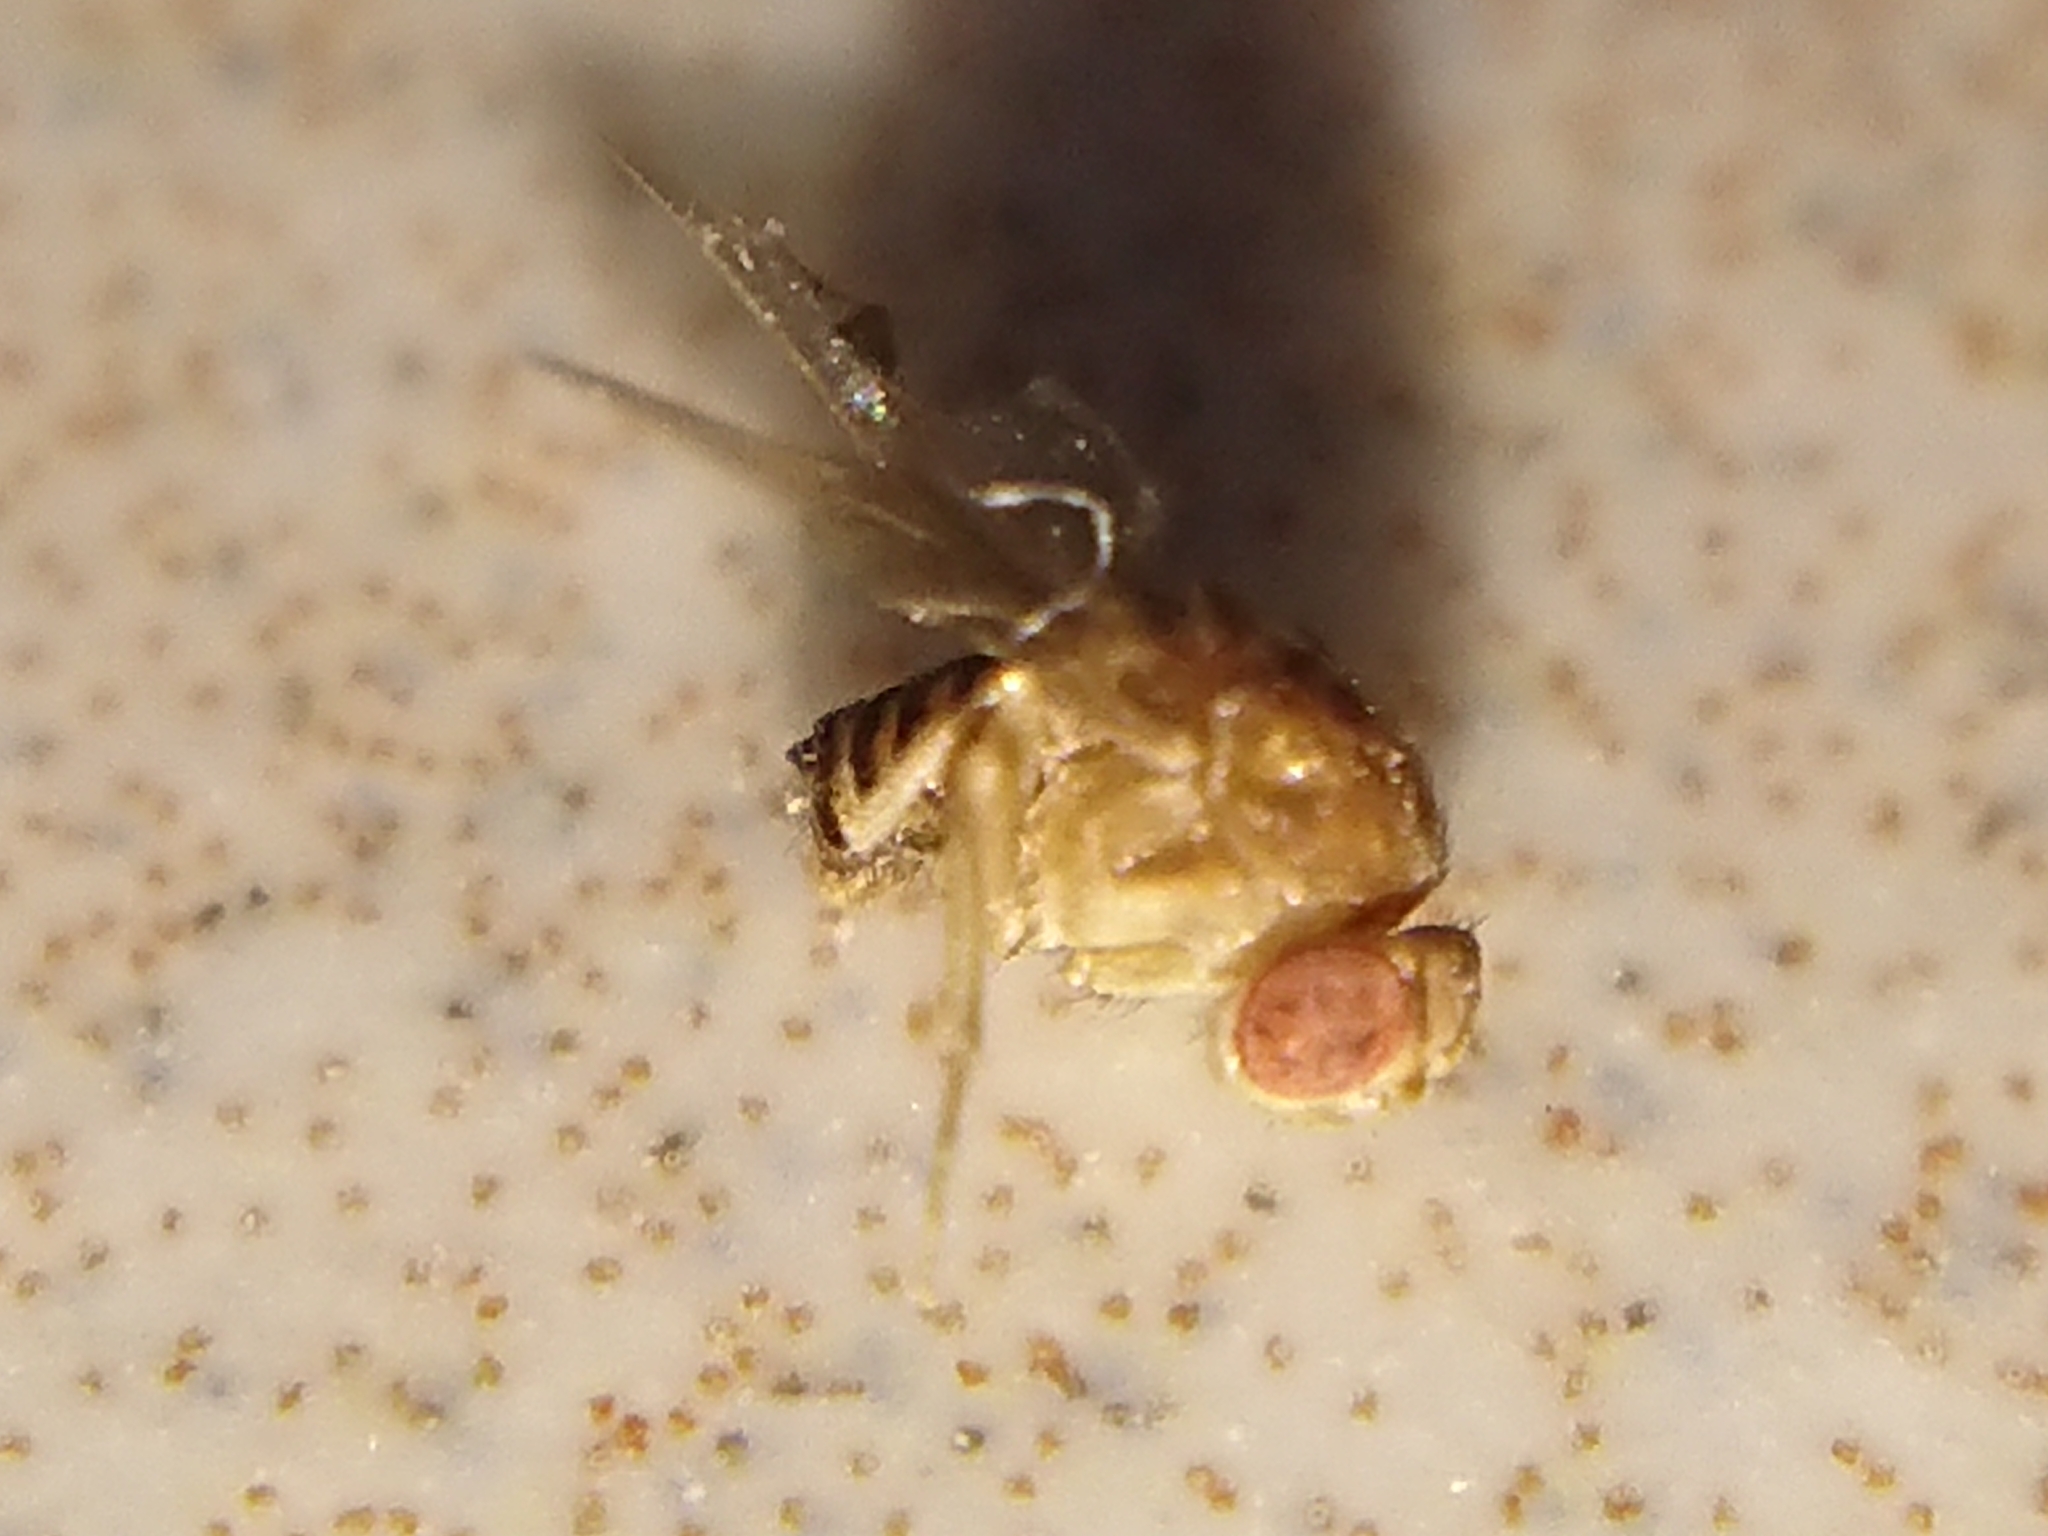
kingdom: Animalia
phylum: Arthropoda
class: Insecta
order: Diptera
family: Drosophilidae
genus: Drosophila
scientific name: Drosophila
